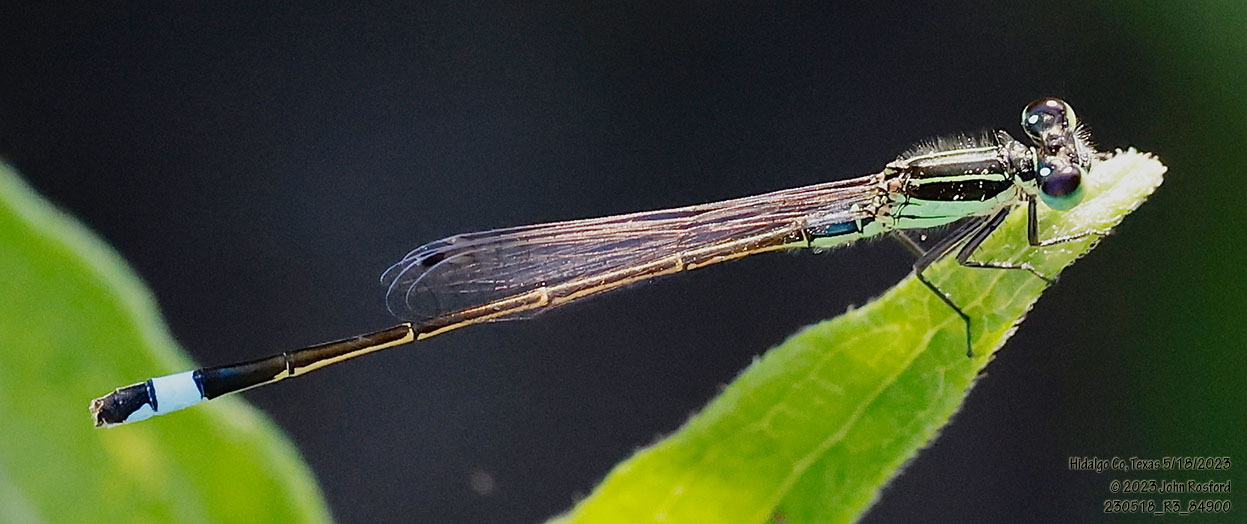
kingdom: Animalia
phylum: Arthropoda
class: Insecta
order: Odonata
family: Coenagrionidae
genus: Ischnura
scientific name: Ischnura ramburii
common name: Rambur's forktail
